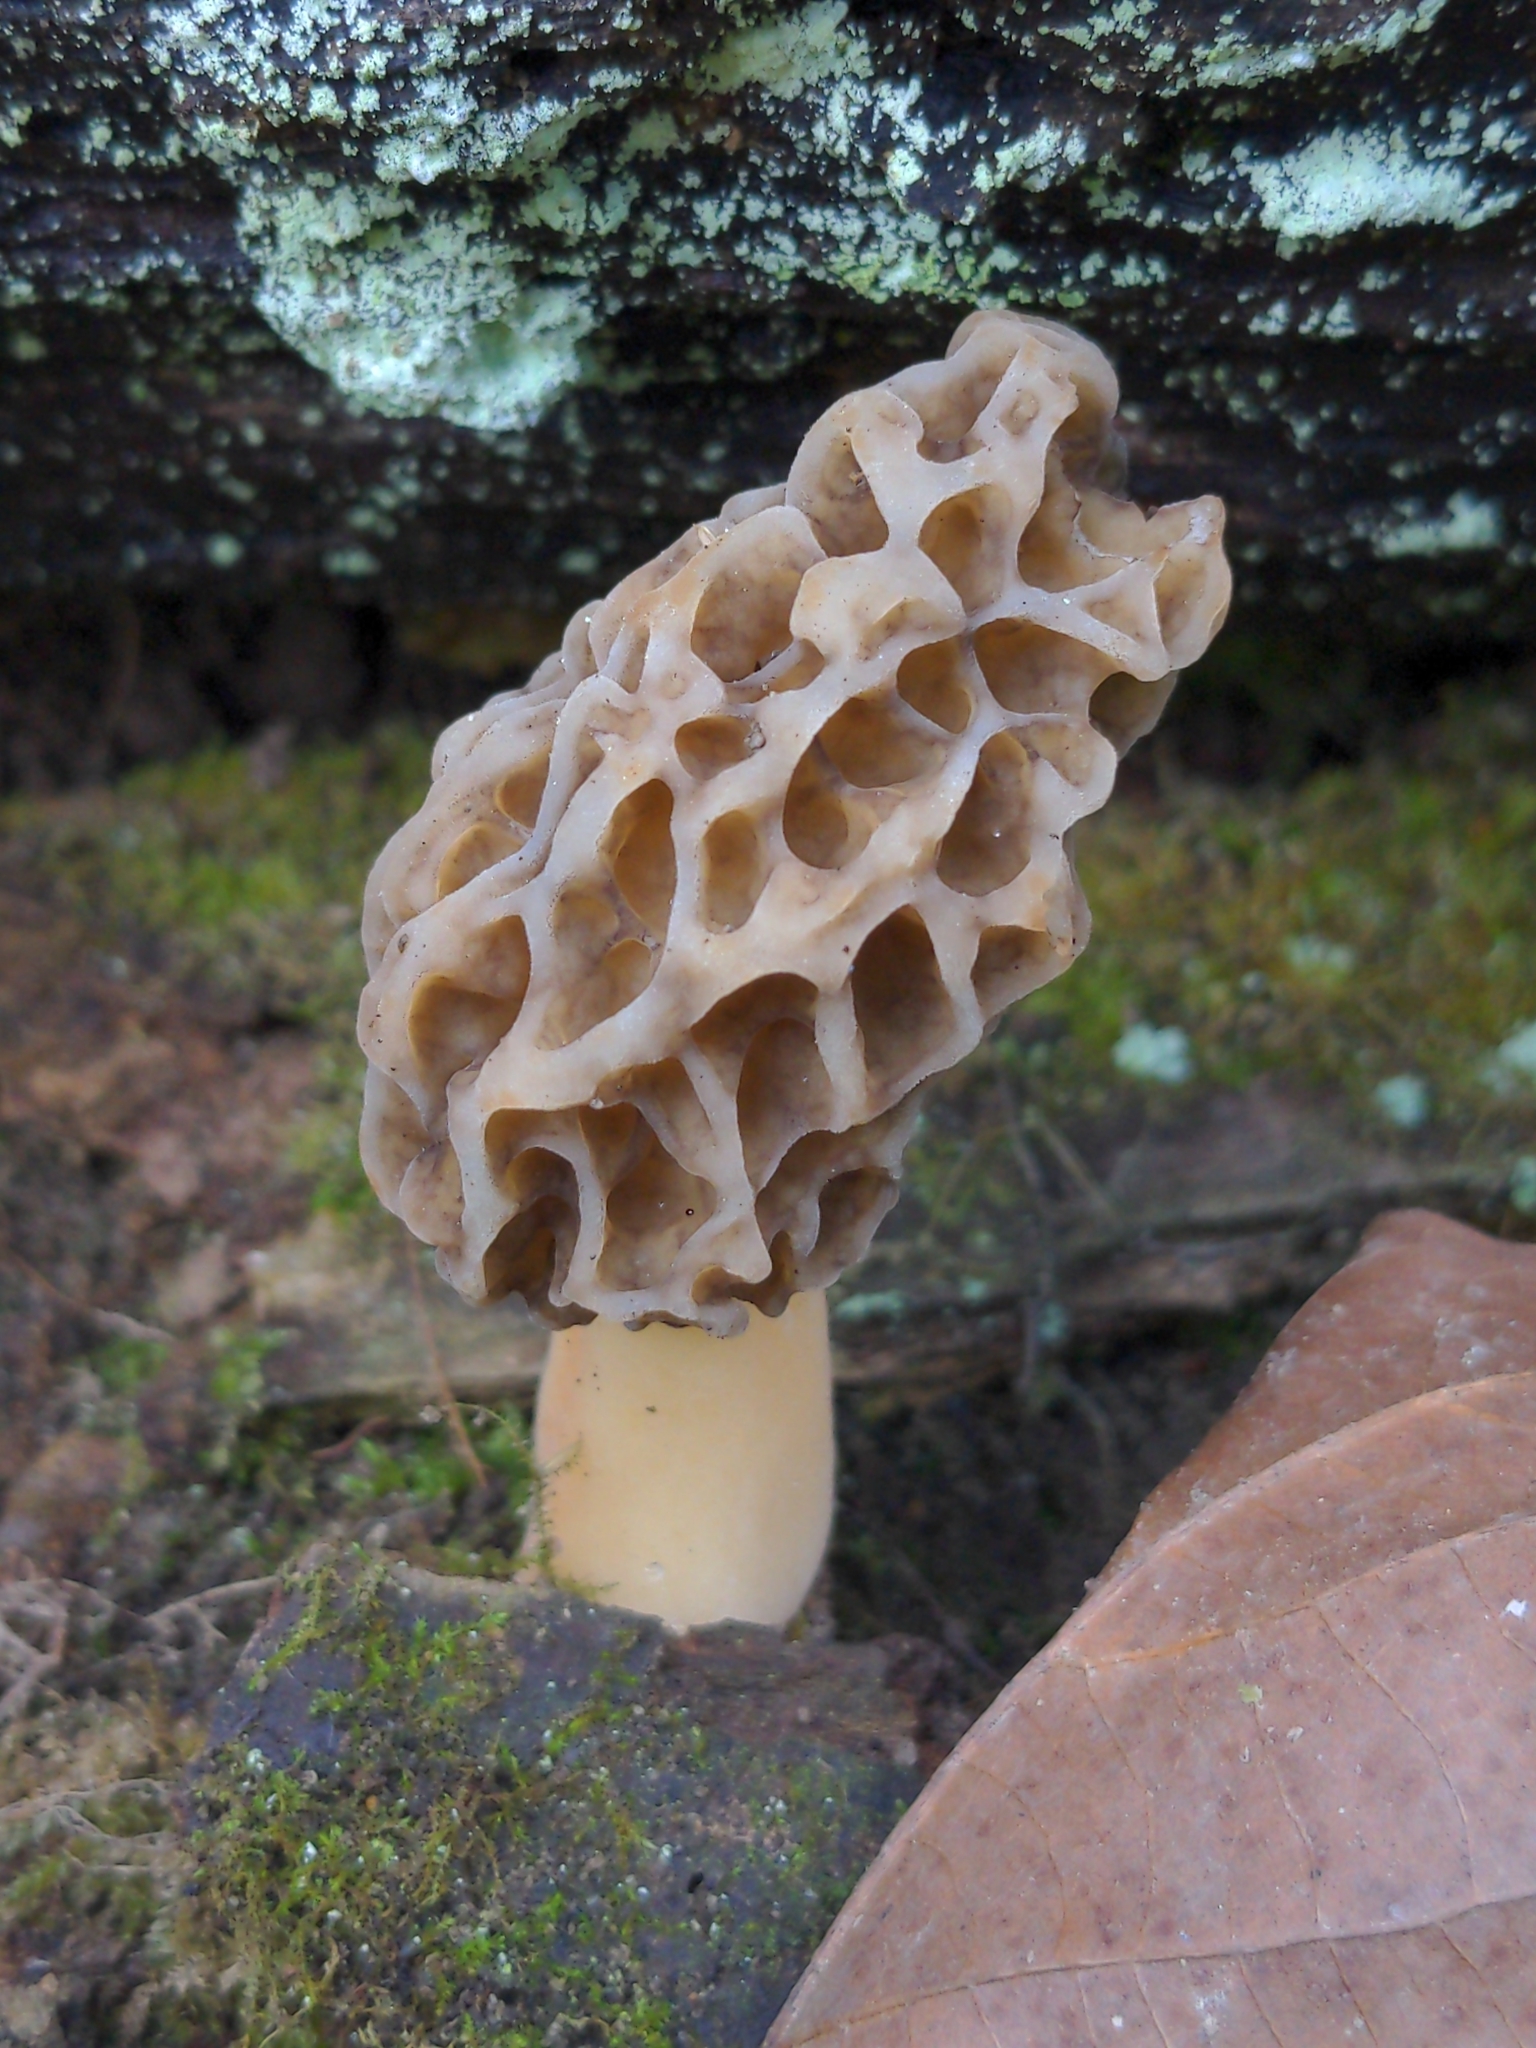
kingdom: Fungi
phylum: Ascomycota
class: Pezizomycetes
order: Pezizales
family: Morchellaceae
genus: Morchella
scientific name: Morchella americana
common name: White morel
